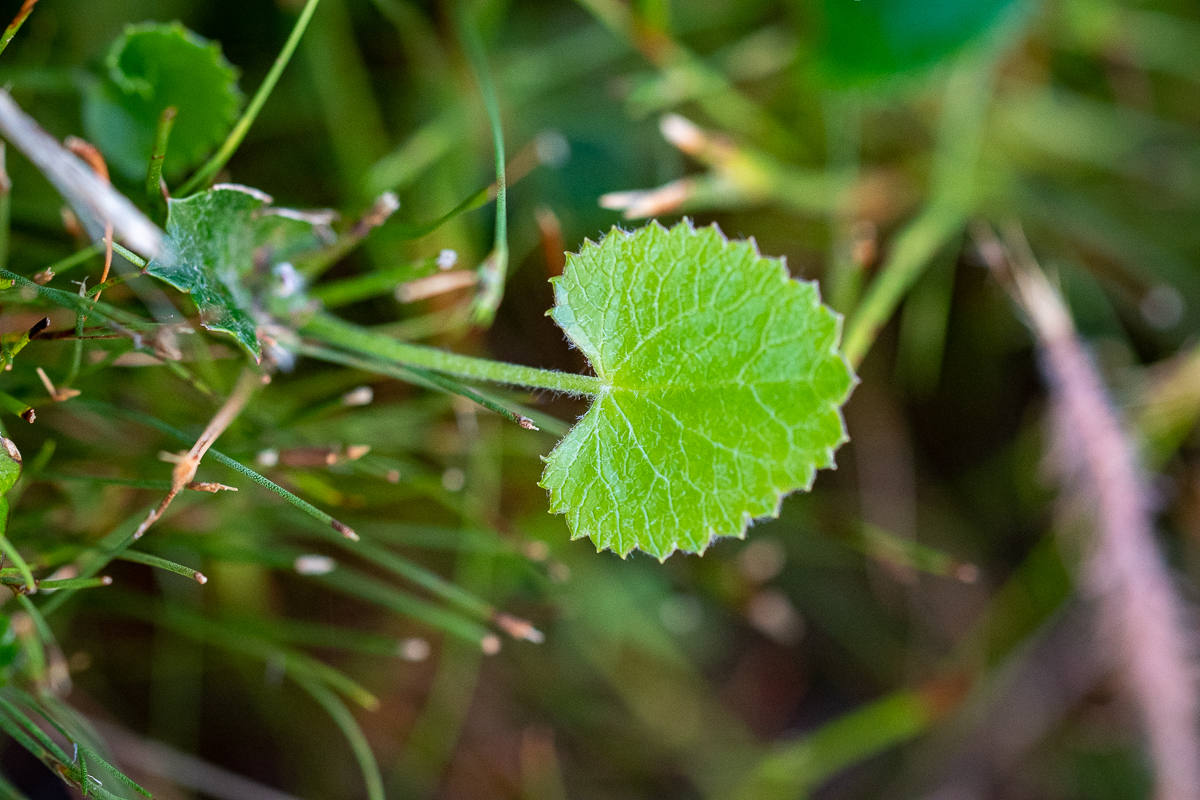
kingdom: Plantae
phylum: Tracheophyta
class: Magnoliopsida
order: Apiales
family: Apiaceae
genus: Centella
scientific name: Centella eriantha
